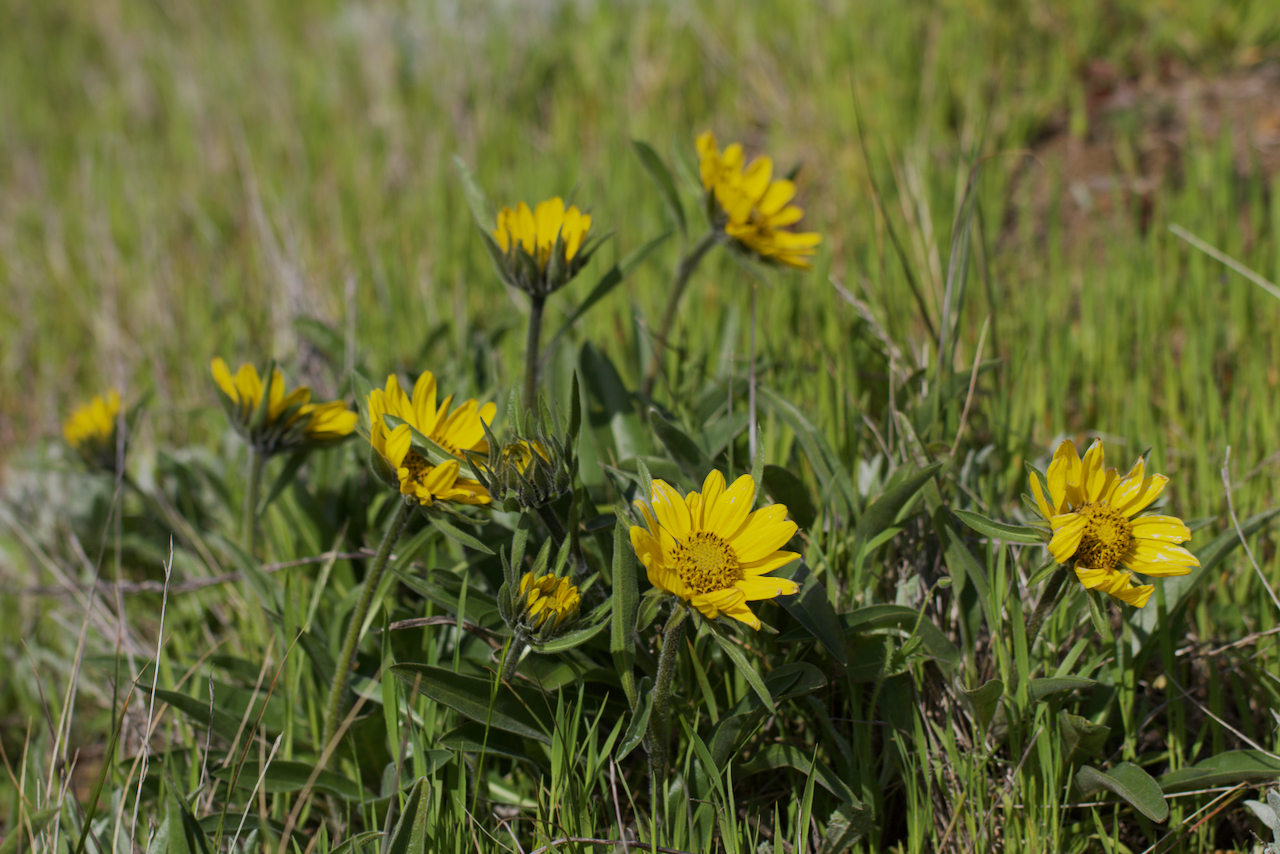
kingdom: Plantae
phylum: Tracheophyta
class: Magnoliopsida
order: Asterales
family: Asteraceae
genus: Helianthella
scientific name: Helianthella castanea
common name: Diablo helianthella
